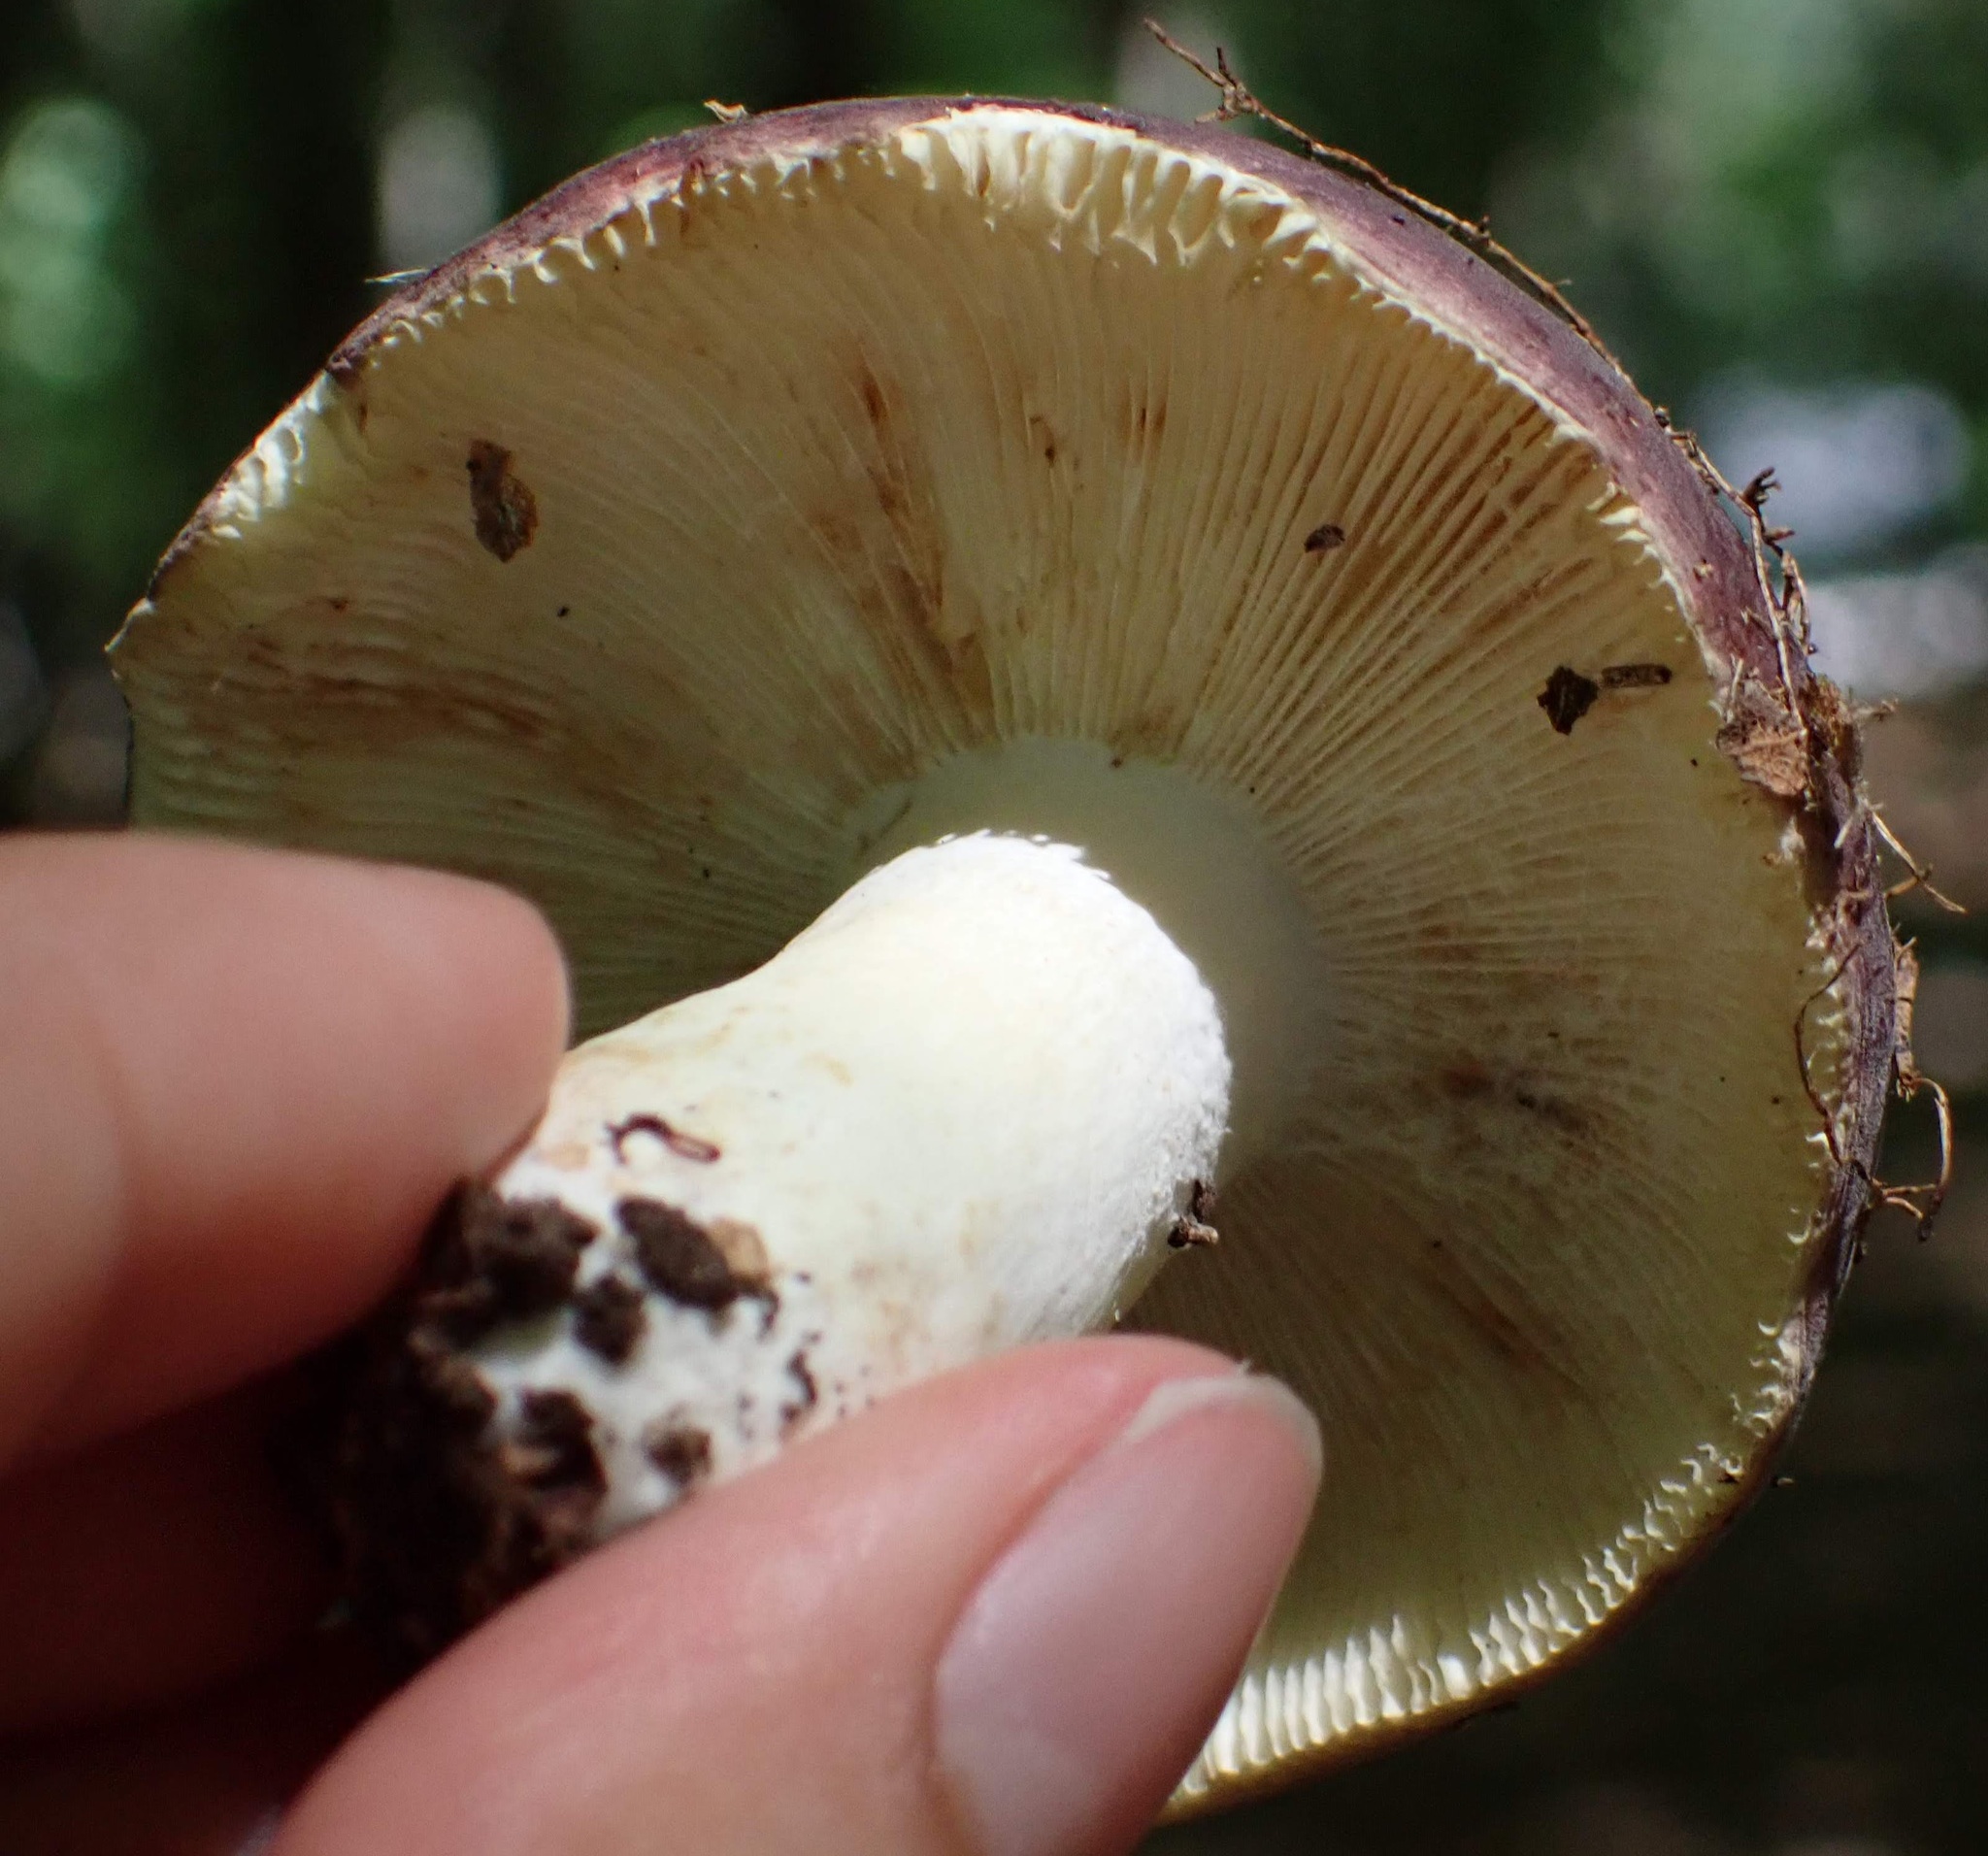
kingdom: Fungi
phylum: Basidiomycota
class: Agaricomycetes
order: Russulales
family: Russulaceae
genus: Russula
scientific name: Russula
